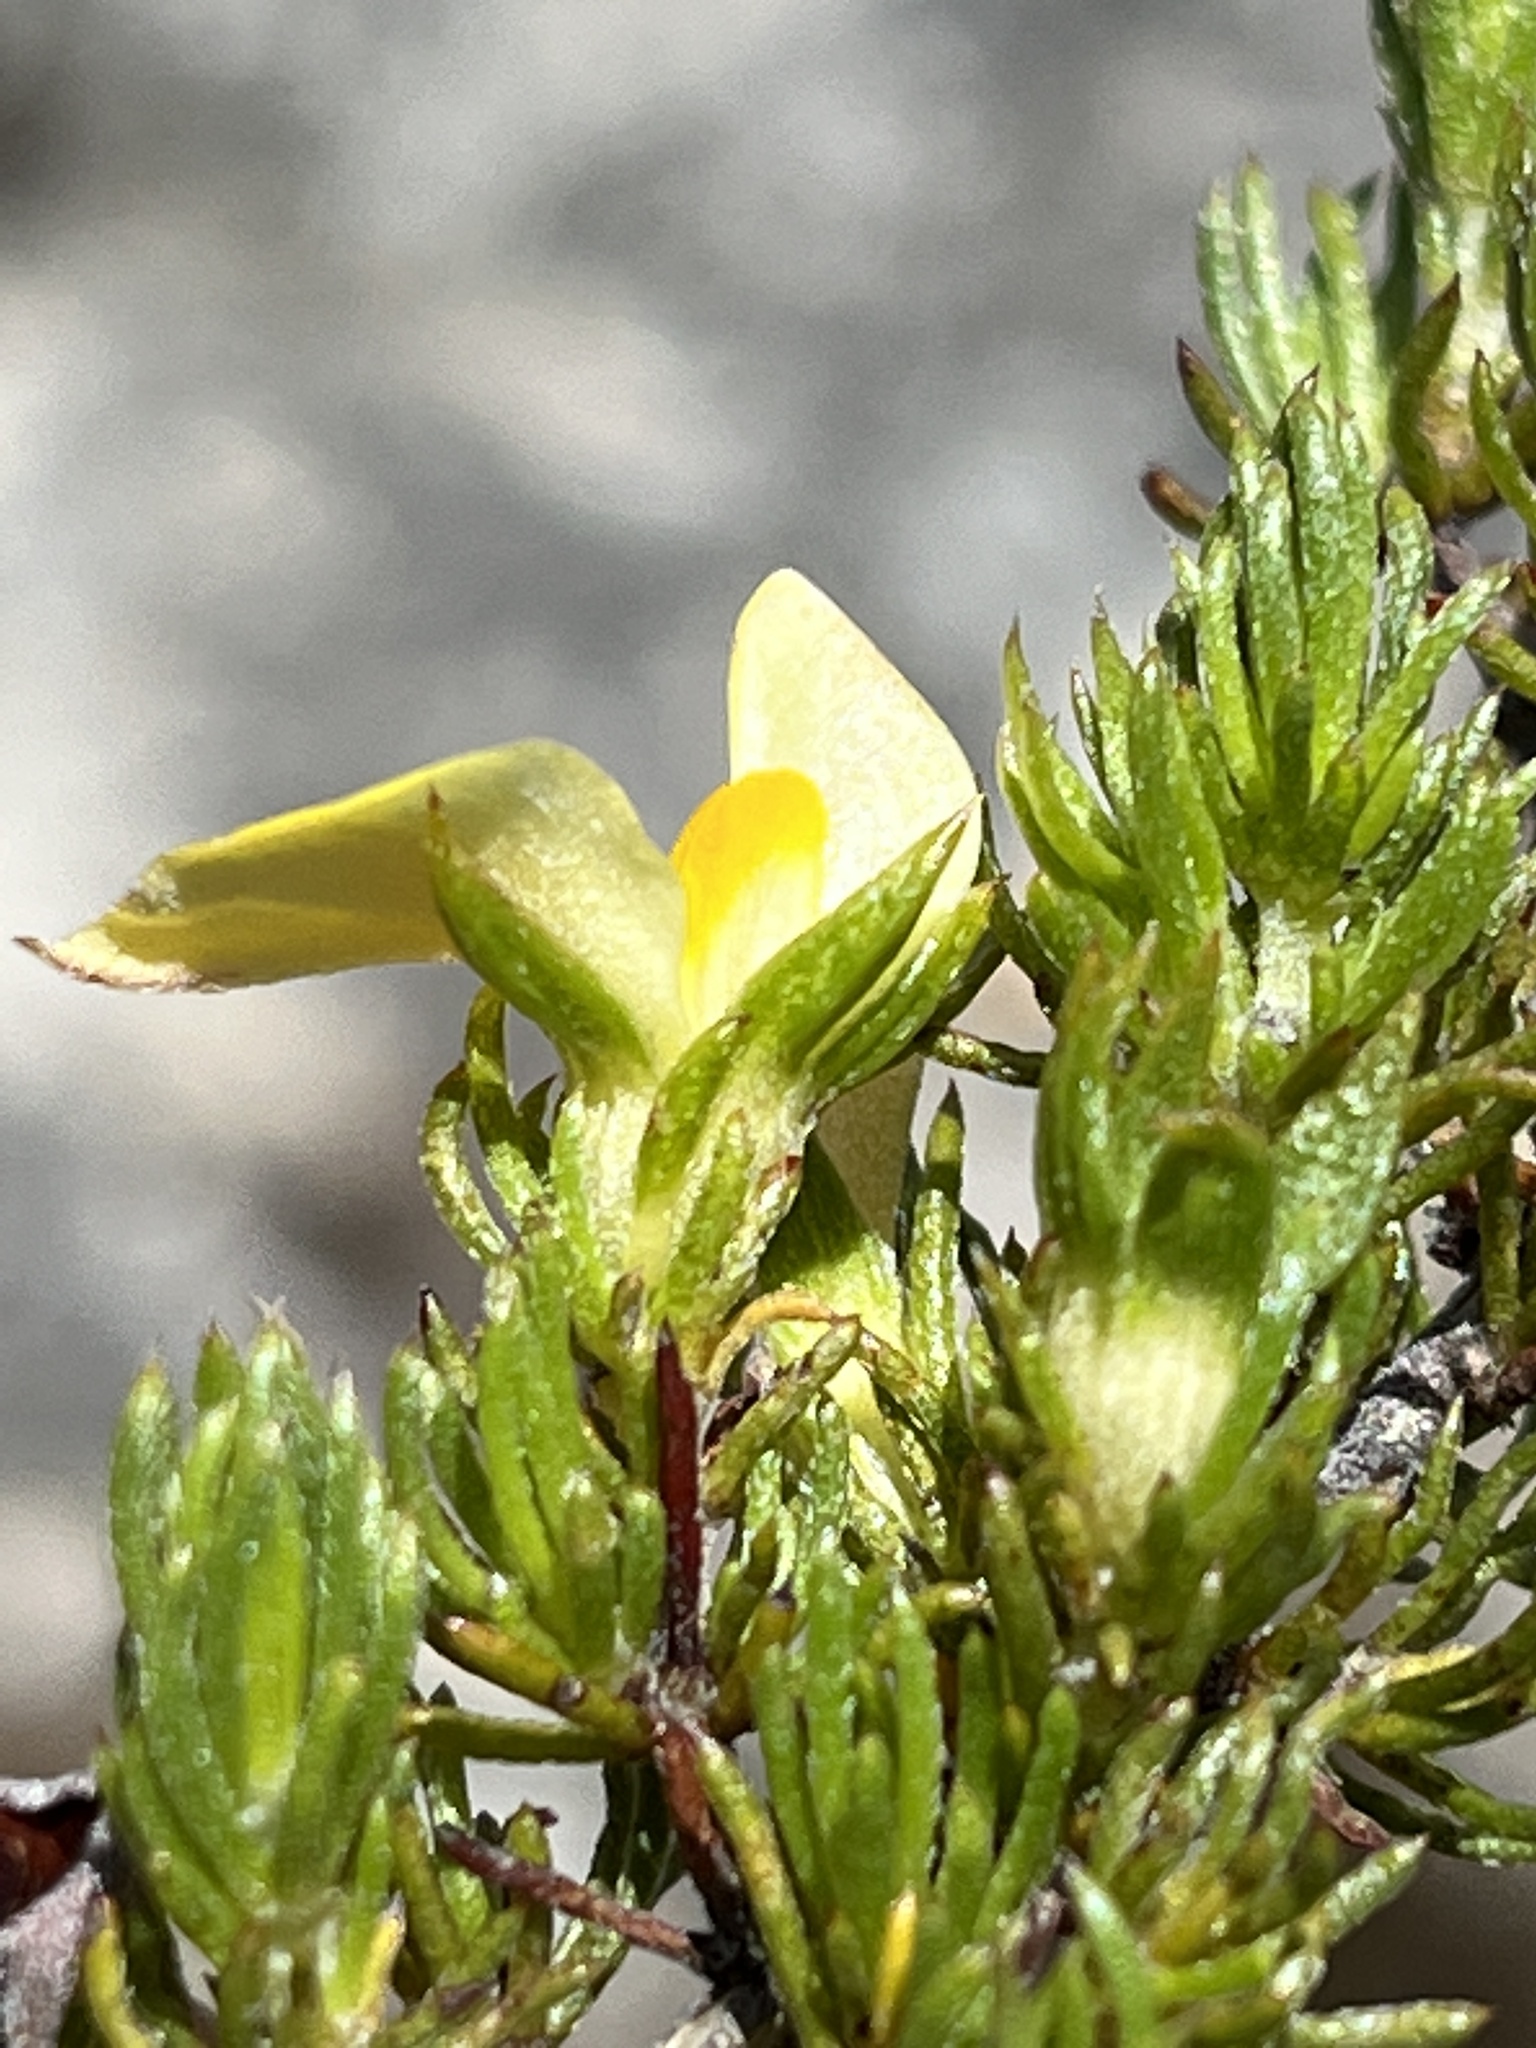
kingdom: Plantae
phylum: Tracheophyta
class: Magnoliopsida
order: Fabales
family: Fabaceae
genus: Aspalathus
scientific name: Aspalathus cliffortioides
